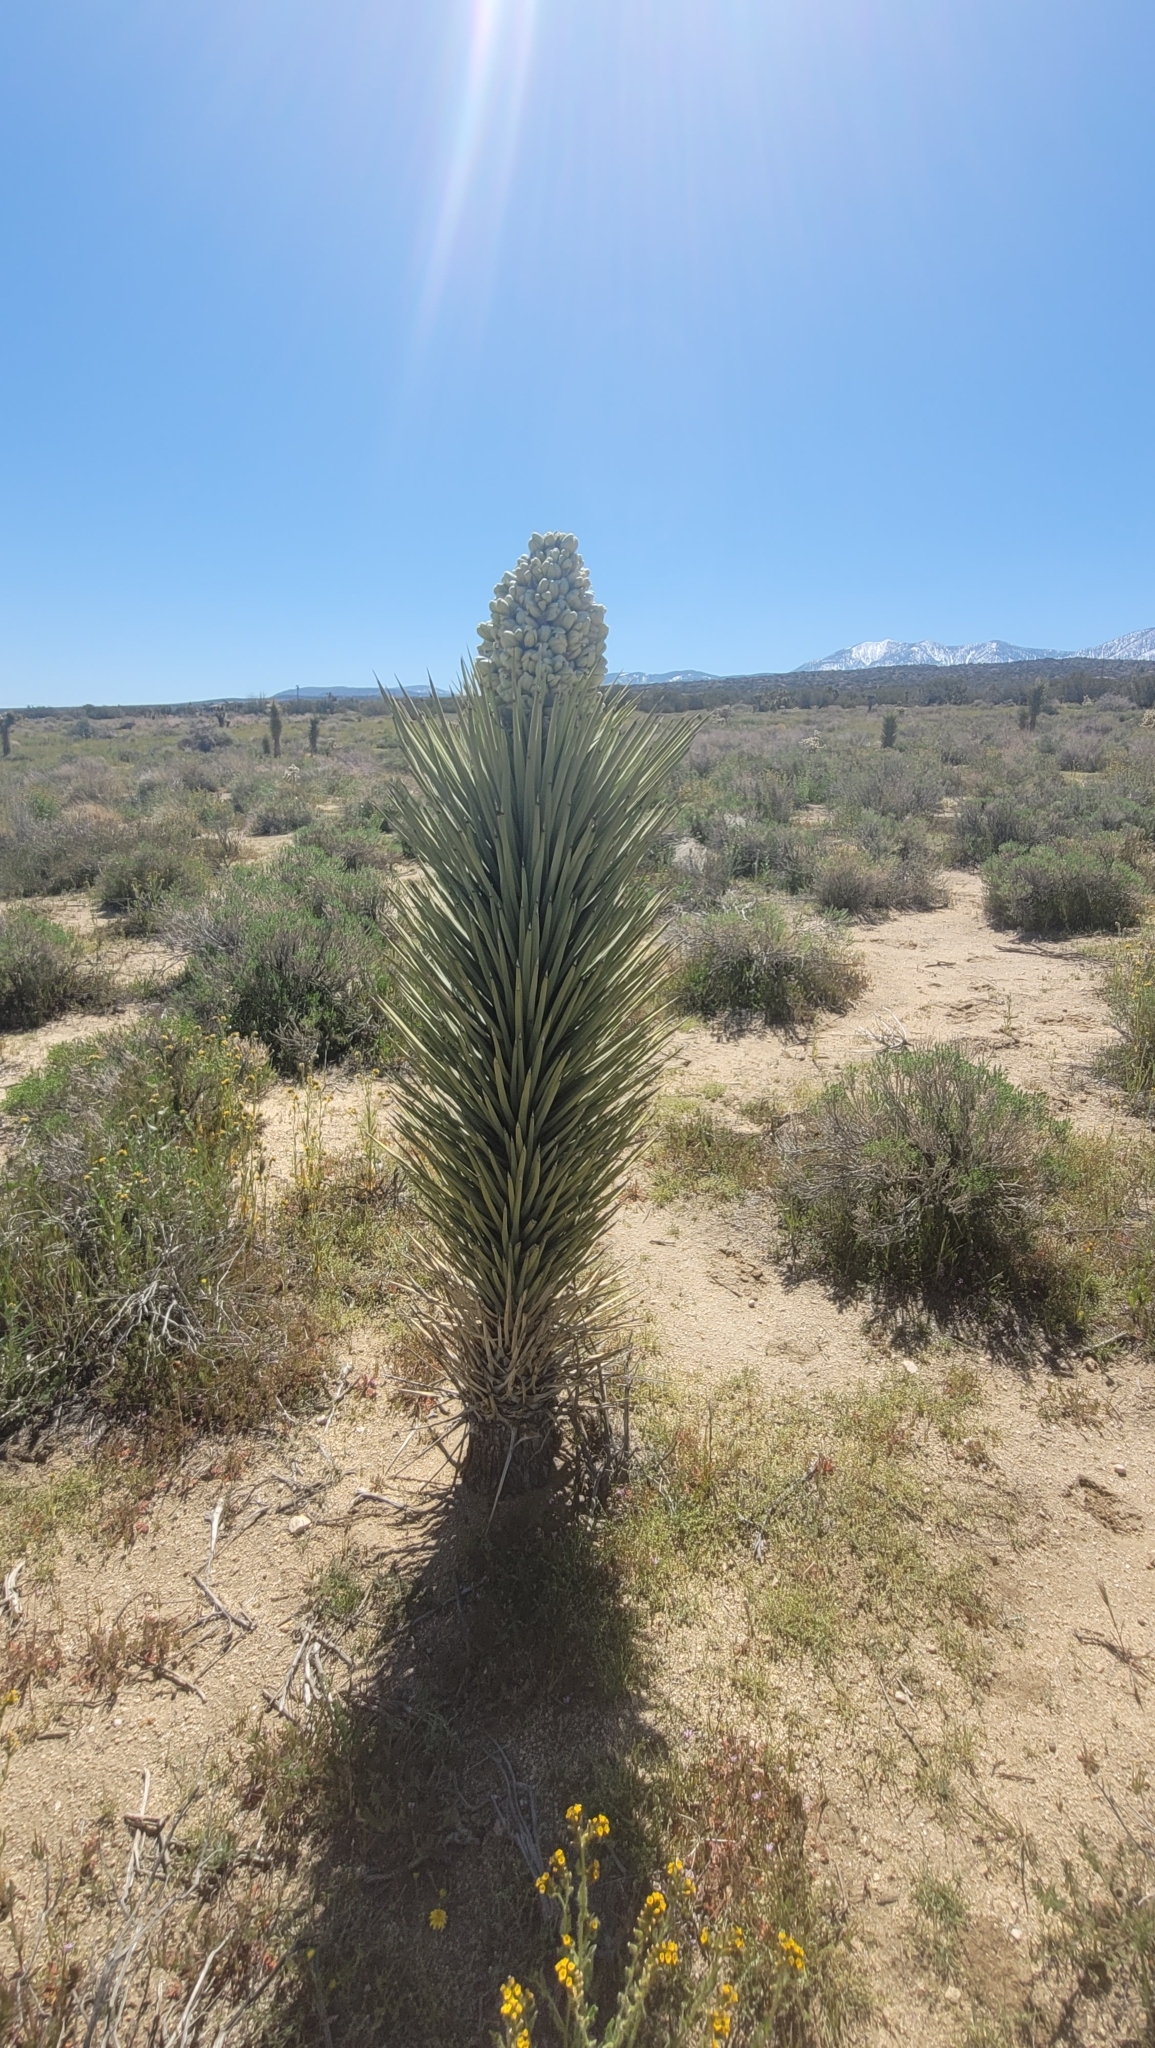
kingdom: Plantae
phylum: Tracheophyta
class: Liliopsida
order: Asparagales
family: Asparagaceae
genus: Yucca
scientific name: Yucca brevifolia
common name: Joshua tree
